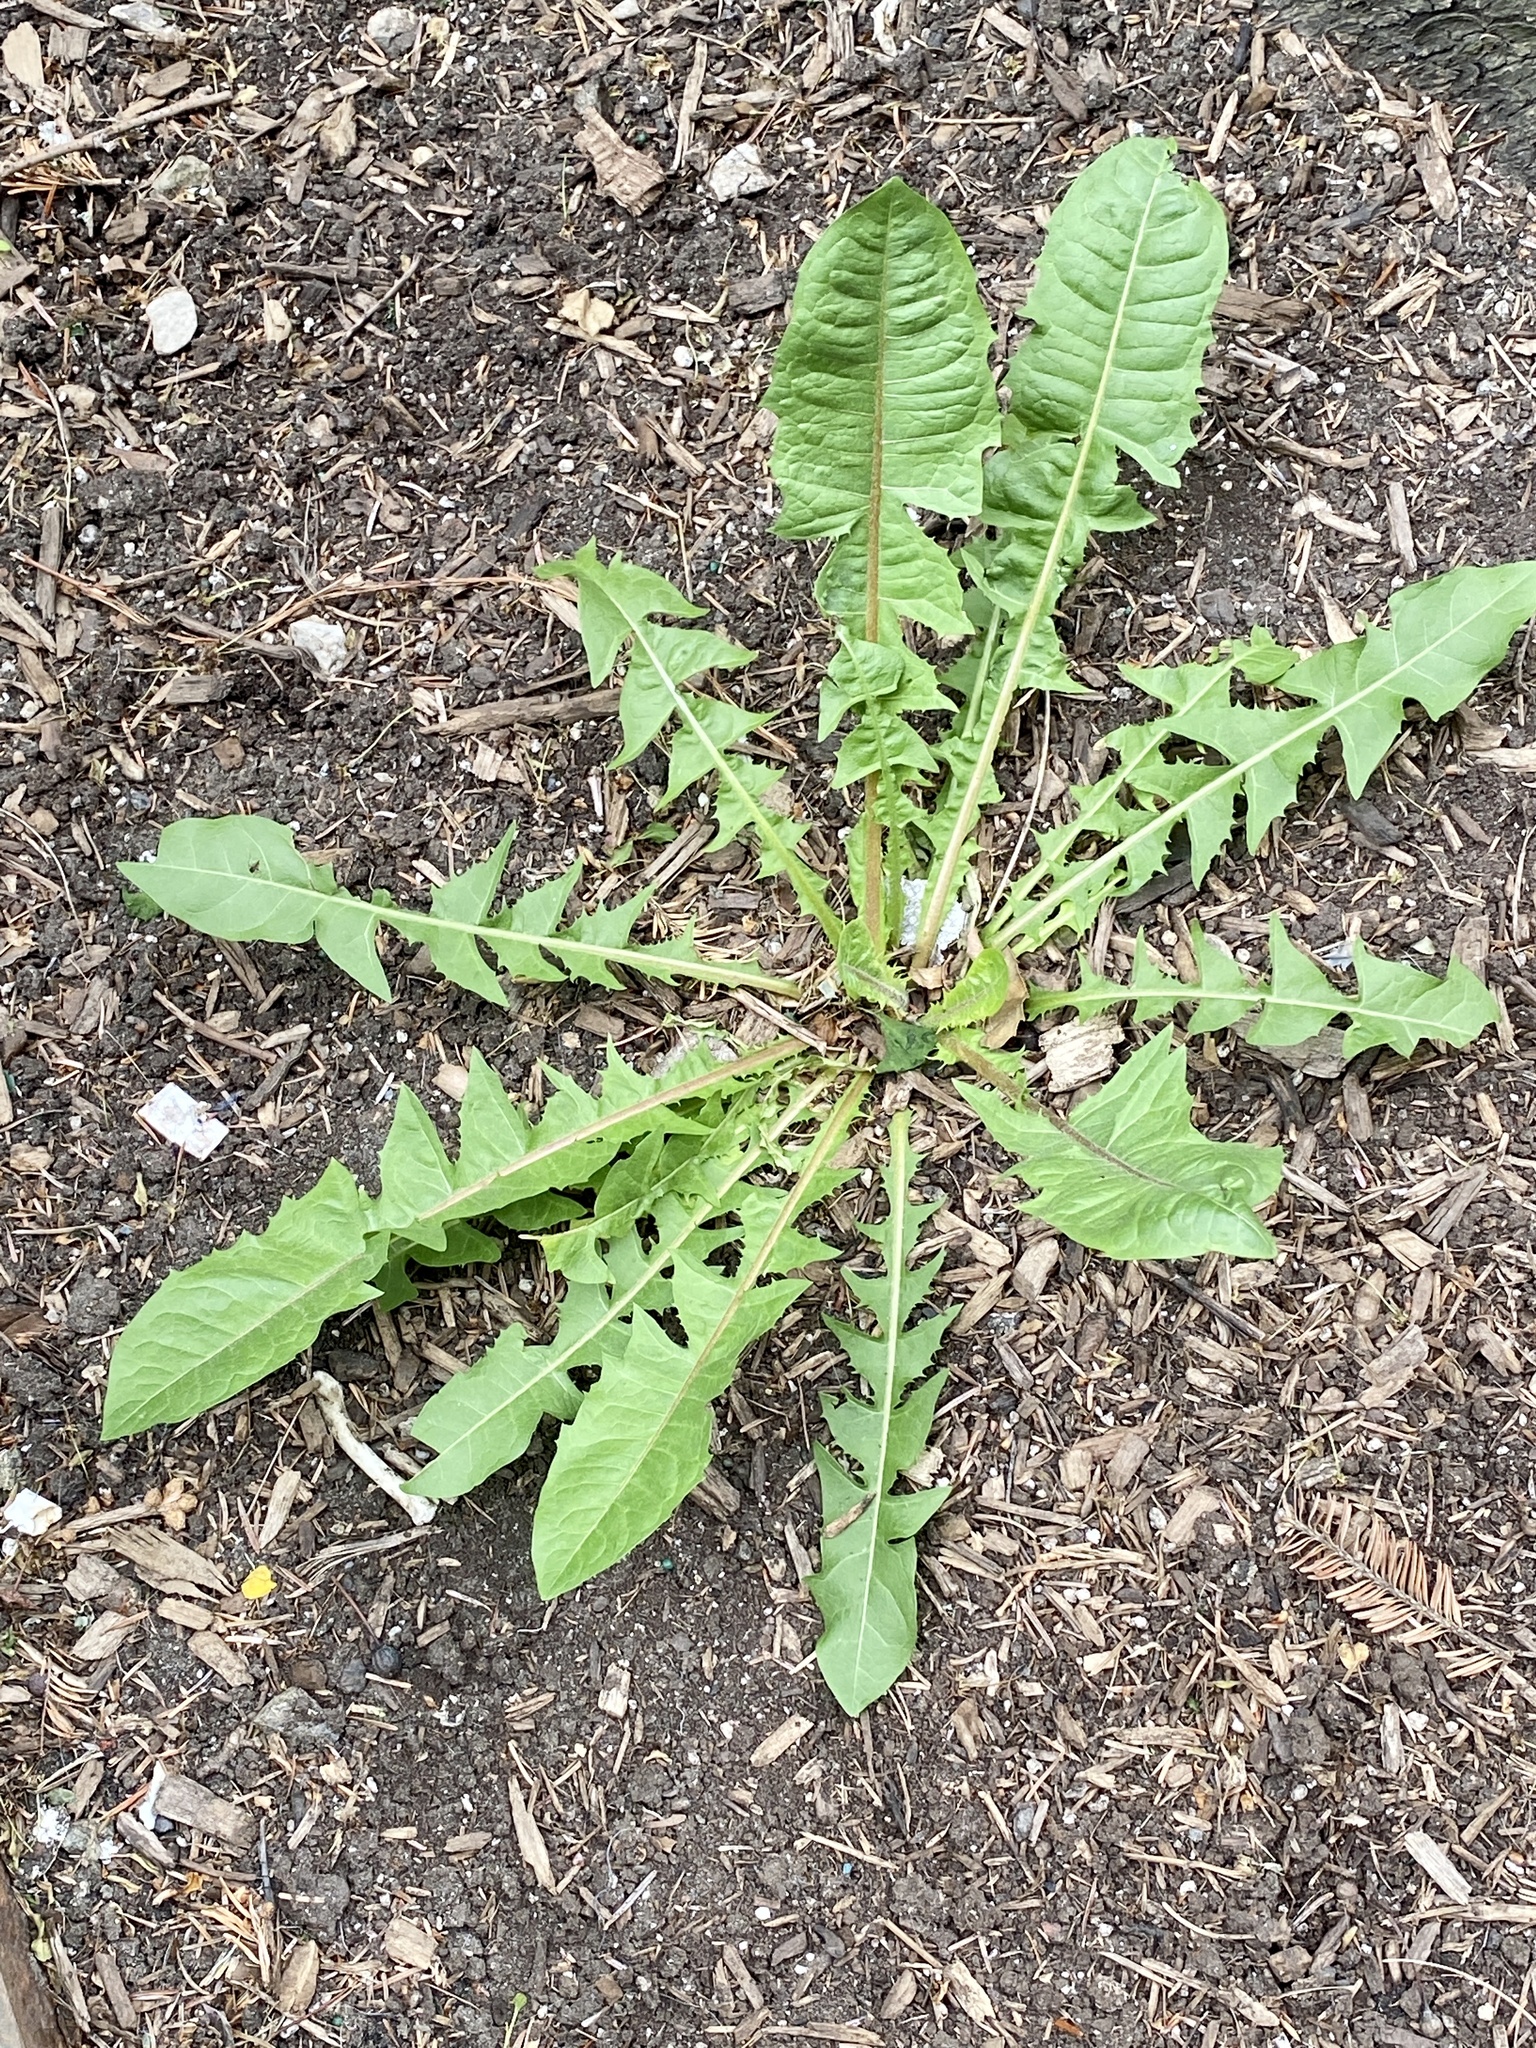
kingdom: Plantae
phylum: Tracheophyta
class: Magnoliopsida
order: Asterales
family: Asteraceae
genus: Taraxacum
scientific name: Taraxacum officinale
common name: Common dandelion
